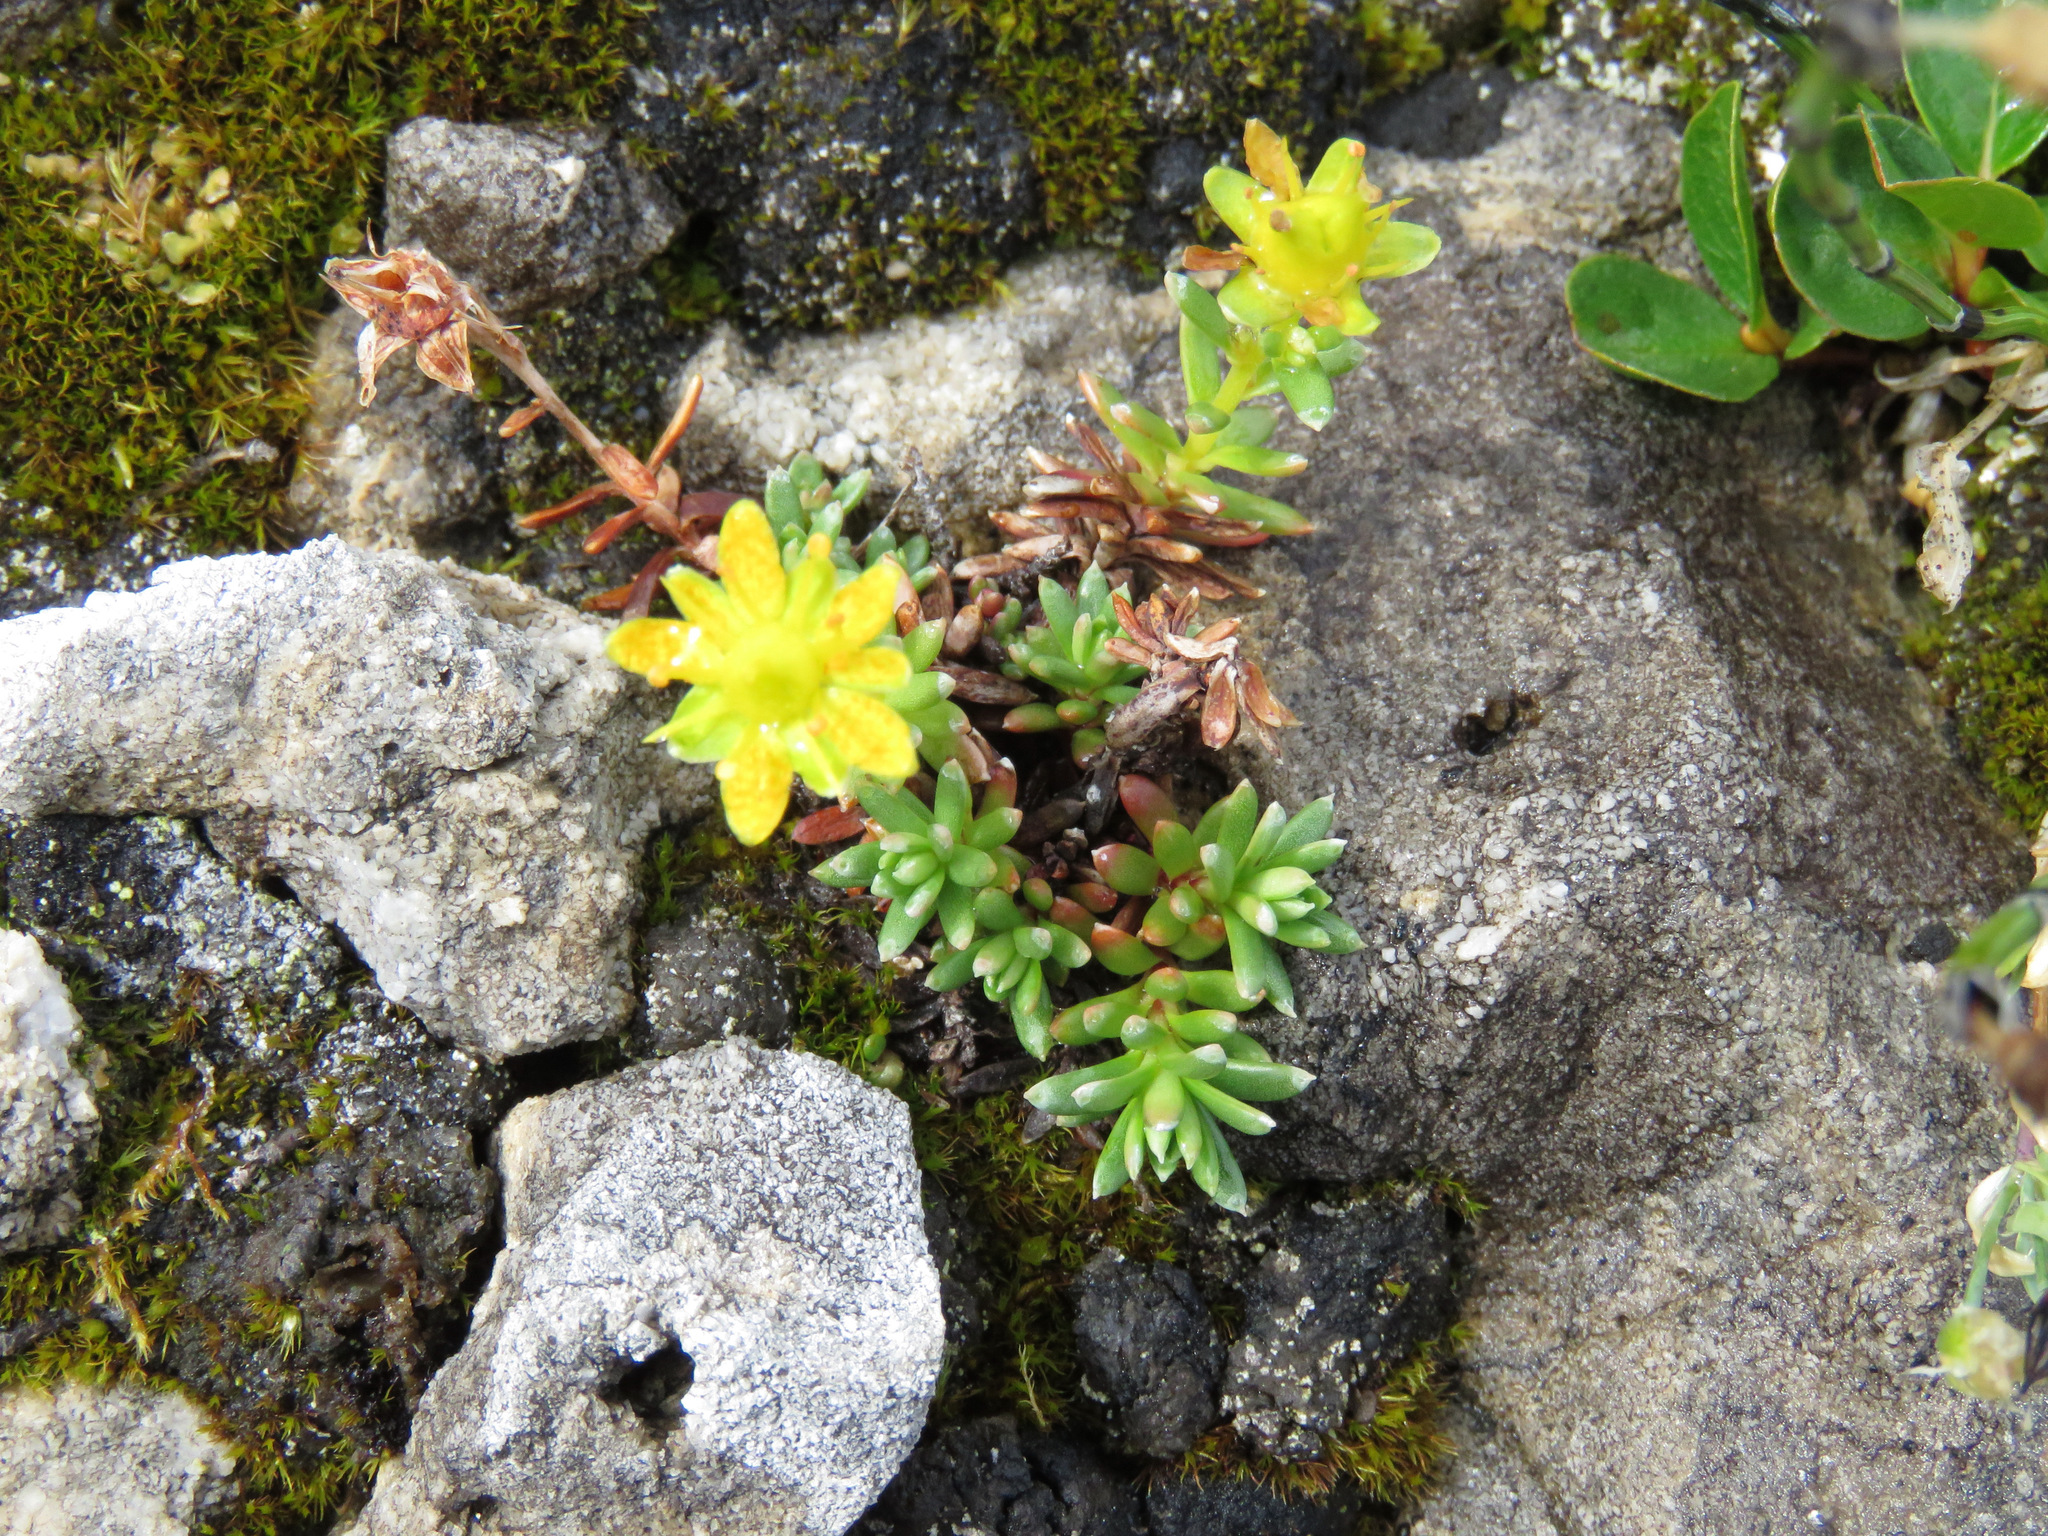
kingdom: Plantae
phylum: Tracheophyta
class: Magnoliopsida
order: Saxifragales
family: Saxifragaceae
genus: Saxifraga
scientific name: Saxifraga aizoides
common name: Yellow mountain saxifrage
